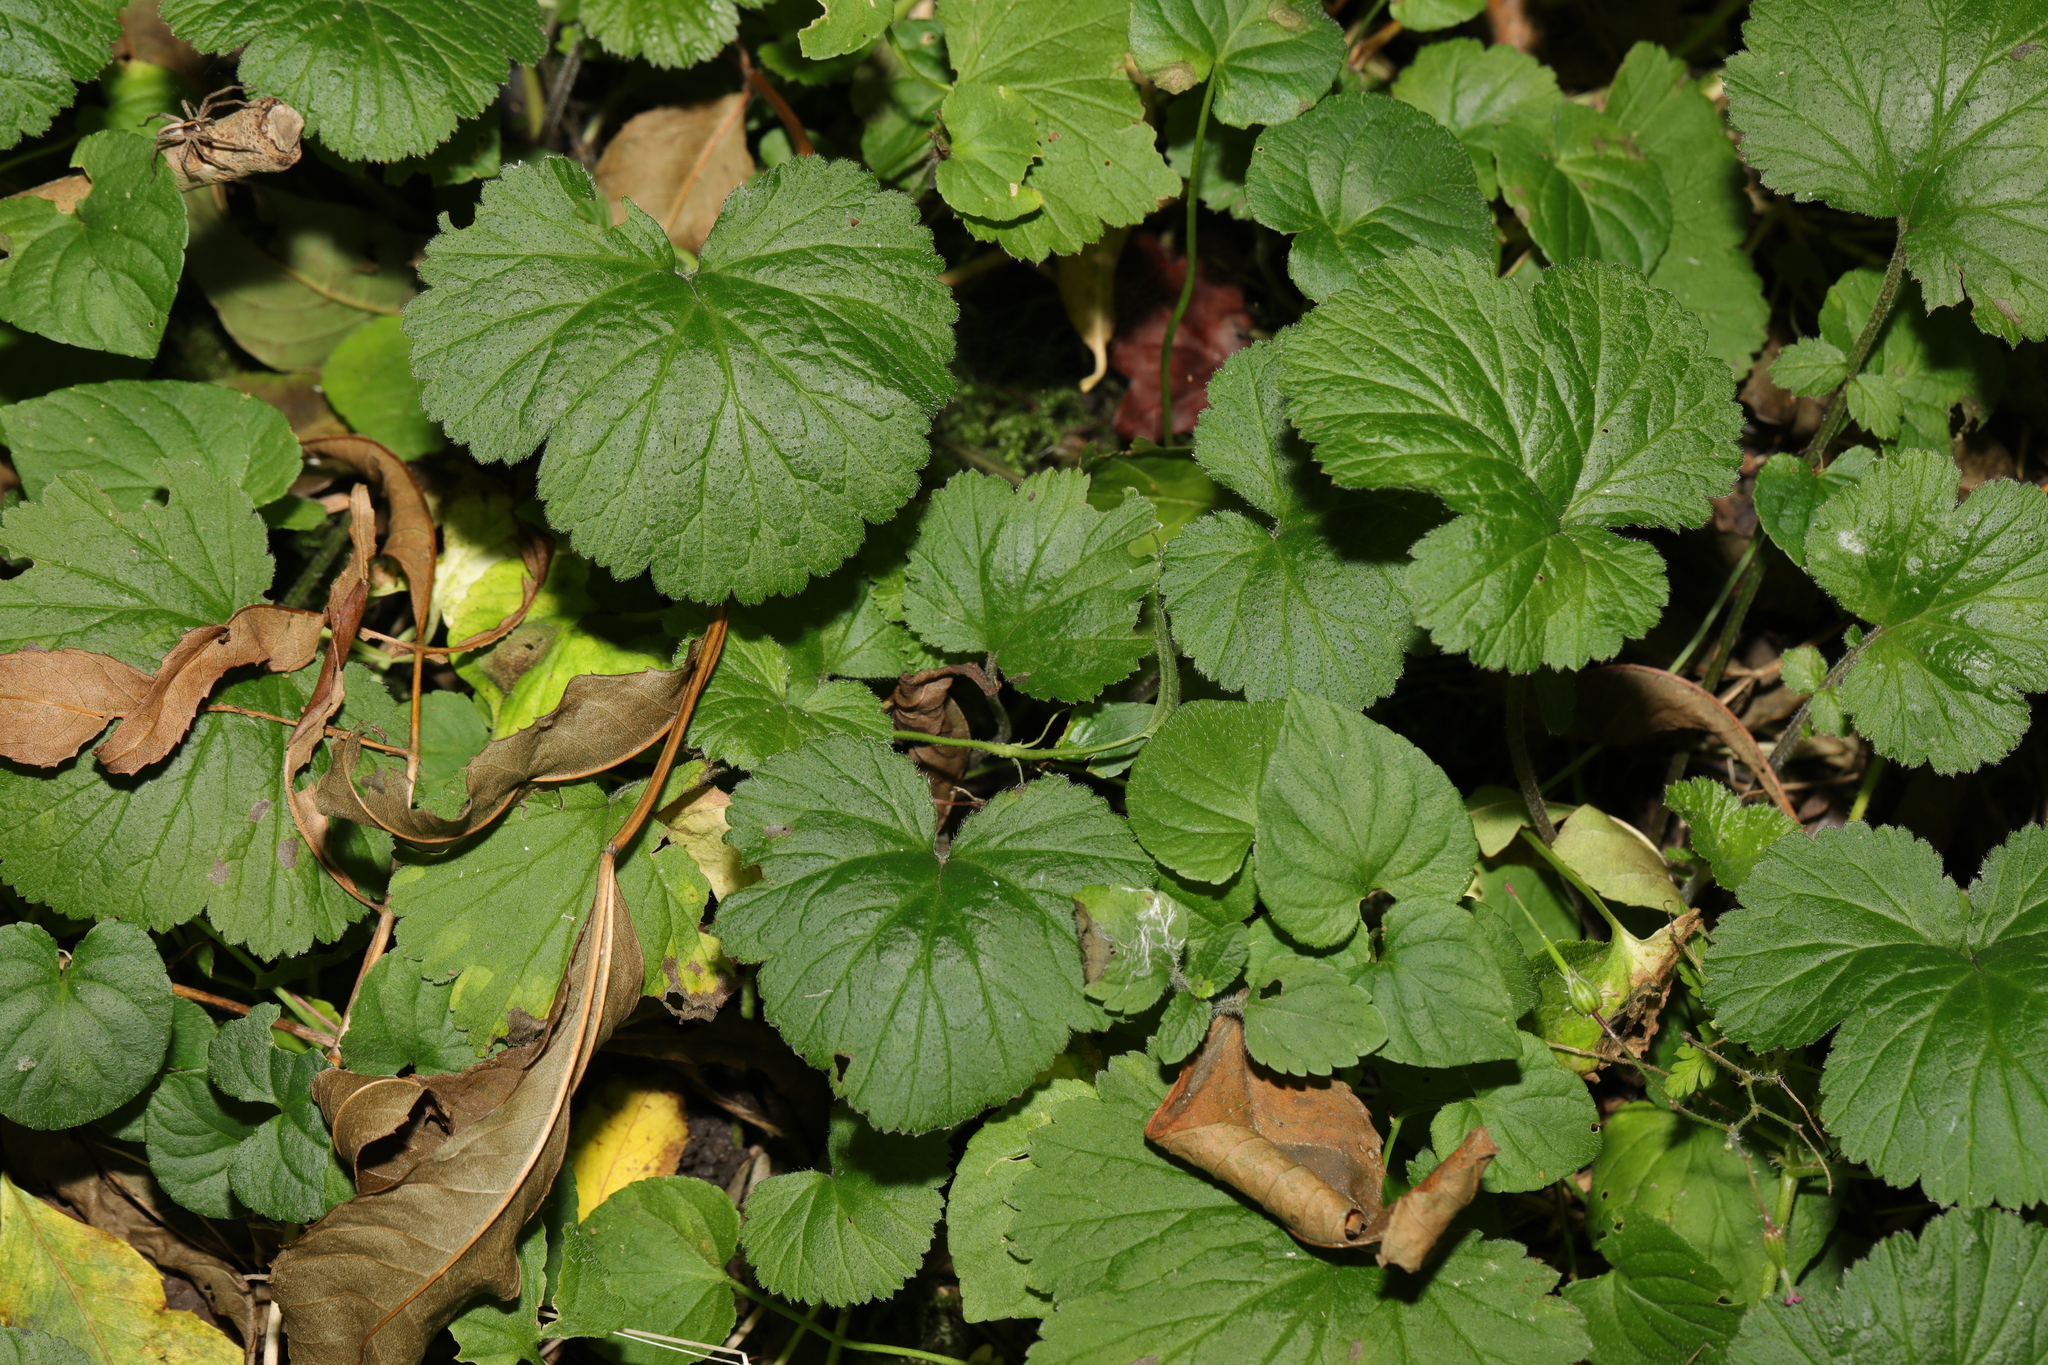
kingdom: Plantae
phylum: Tracheophyta
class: Magnoliopsida
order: Rosales
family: Rosaceae
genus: Geum
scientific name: Geum urbanum
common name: Wood avens
